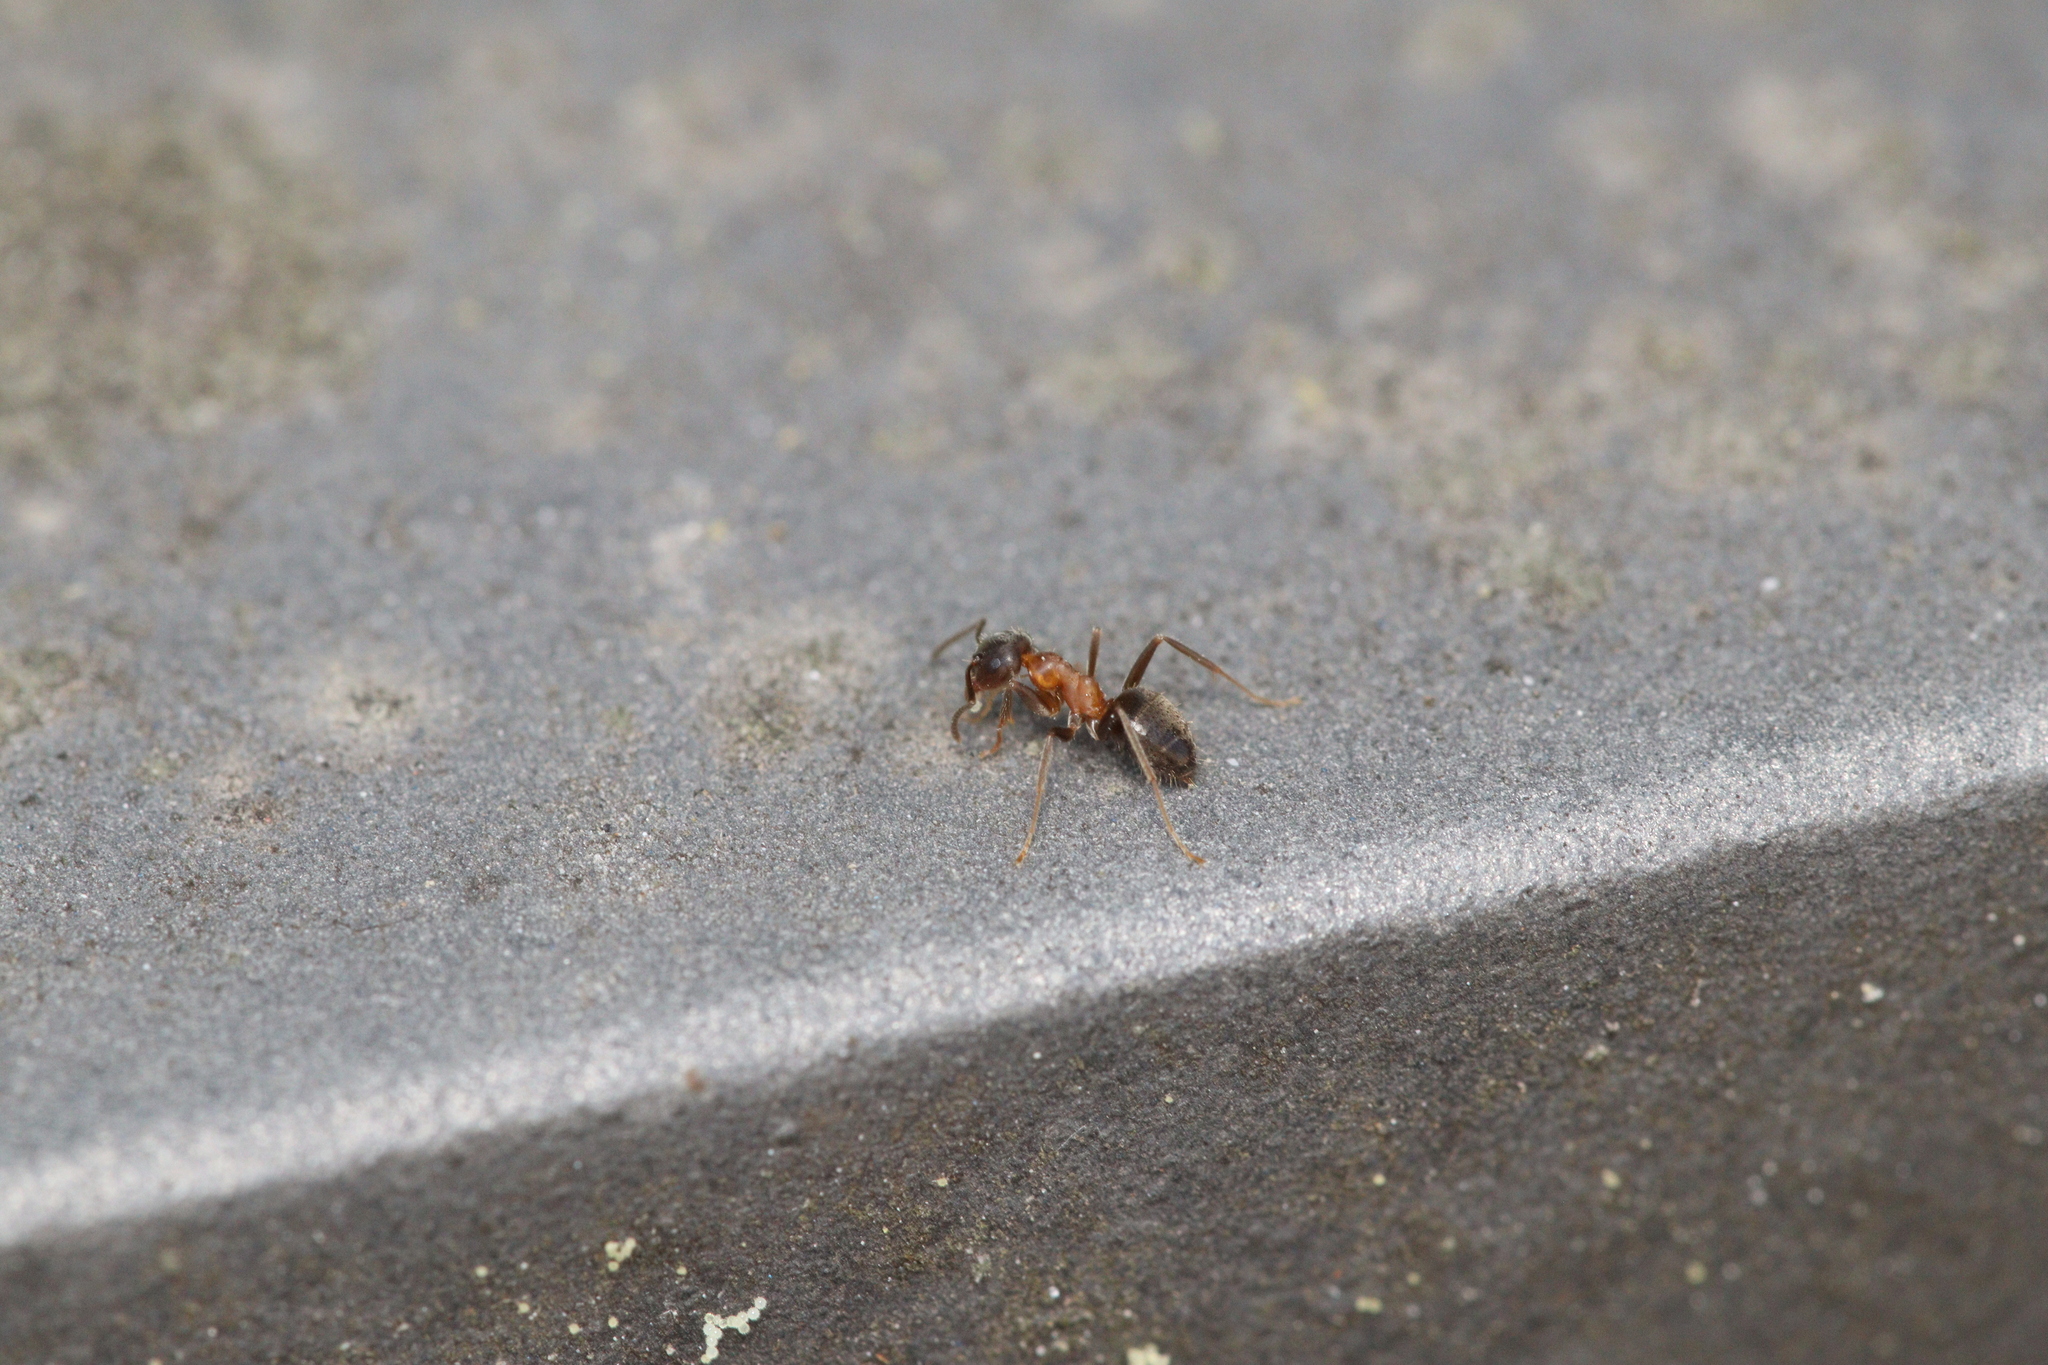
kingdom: Animalia
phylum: Arthropoda
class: Insecta
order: Hymenoptera
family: Formicidae
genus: Lasius
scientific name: Lasius emarginatus
